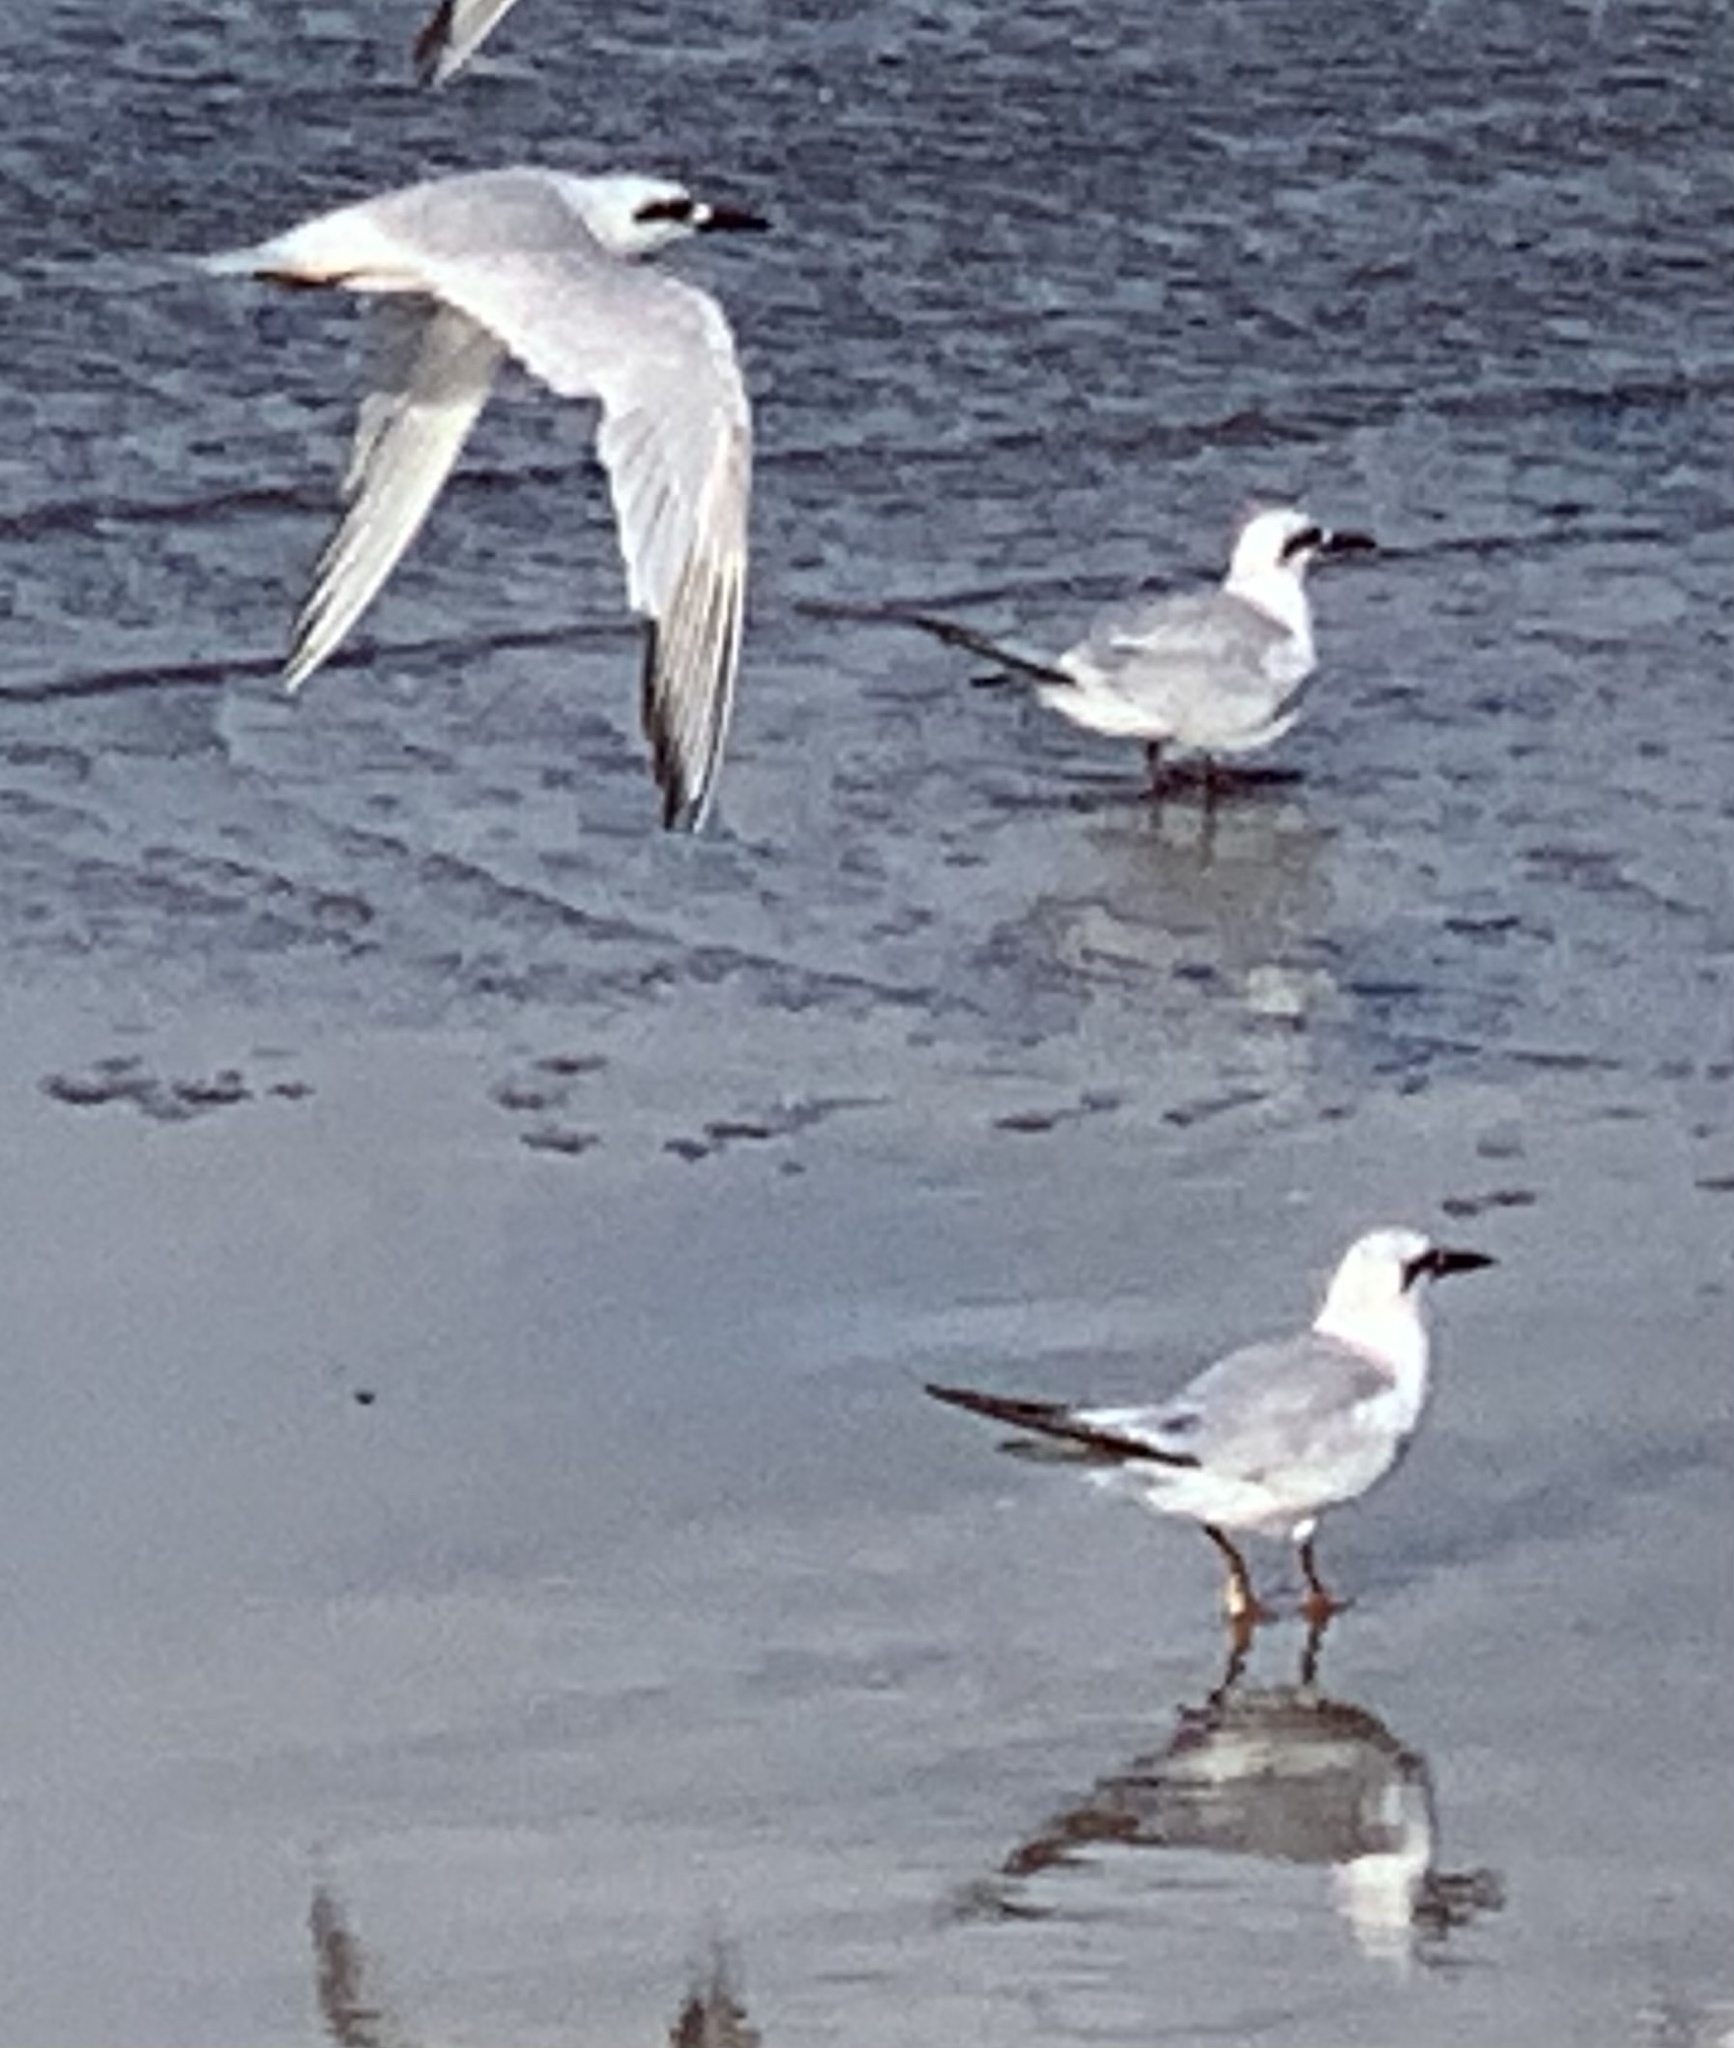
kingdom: Animalia
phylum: Chordata
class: Aves
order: Charadriiformes
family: Laridae
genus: Sterna
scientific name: Sterna trudeaui
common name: Snowy-crowned tern
